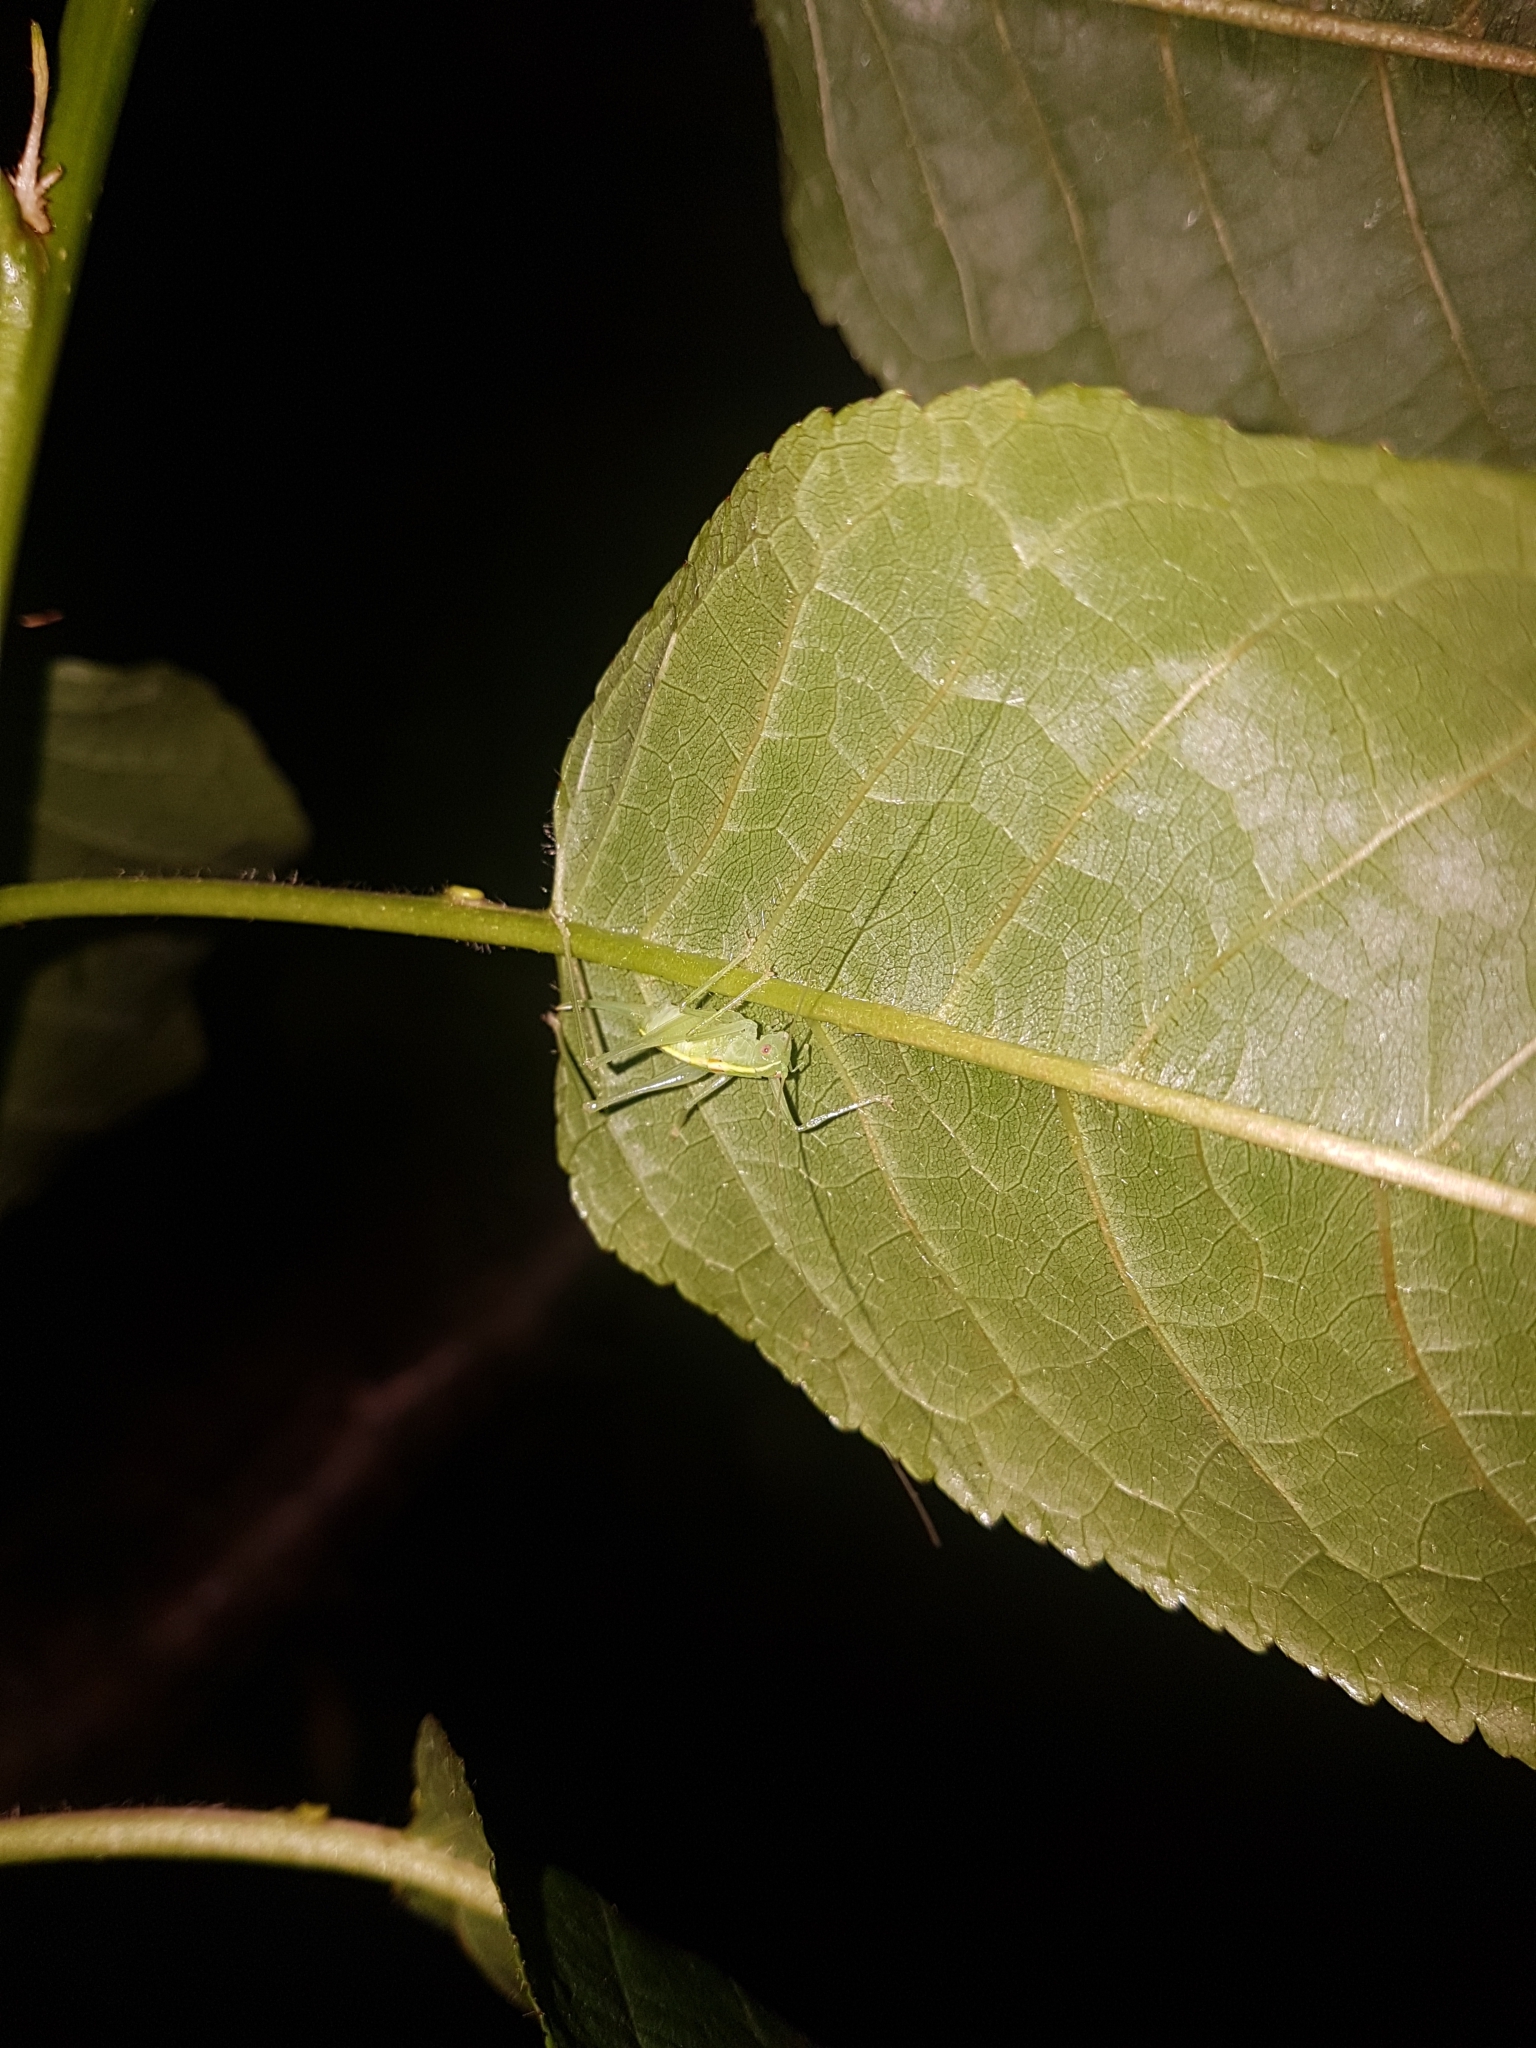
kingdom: Animalia
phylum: Arthropoda
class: Insecta
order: Orthoptera
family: Tettigoniidae
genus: Meconema
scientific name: Meconema meridionale
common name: Southern oak bush-cricket
